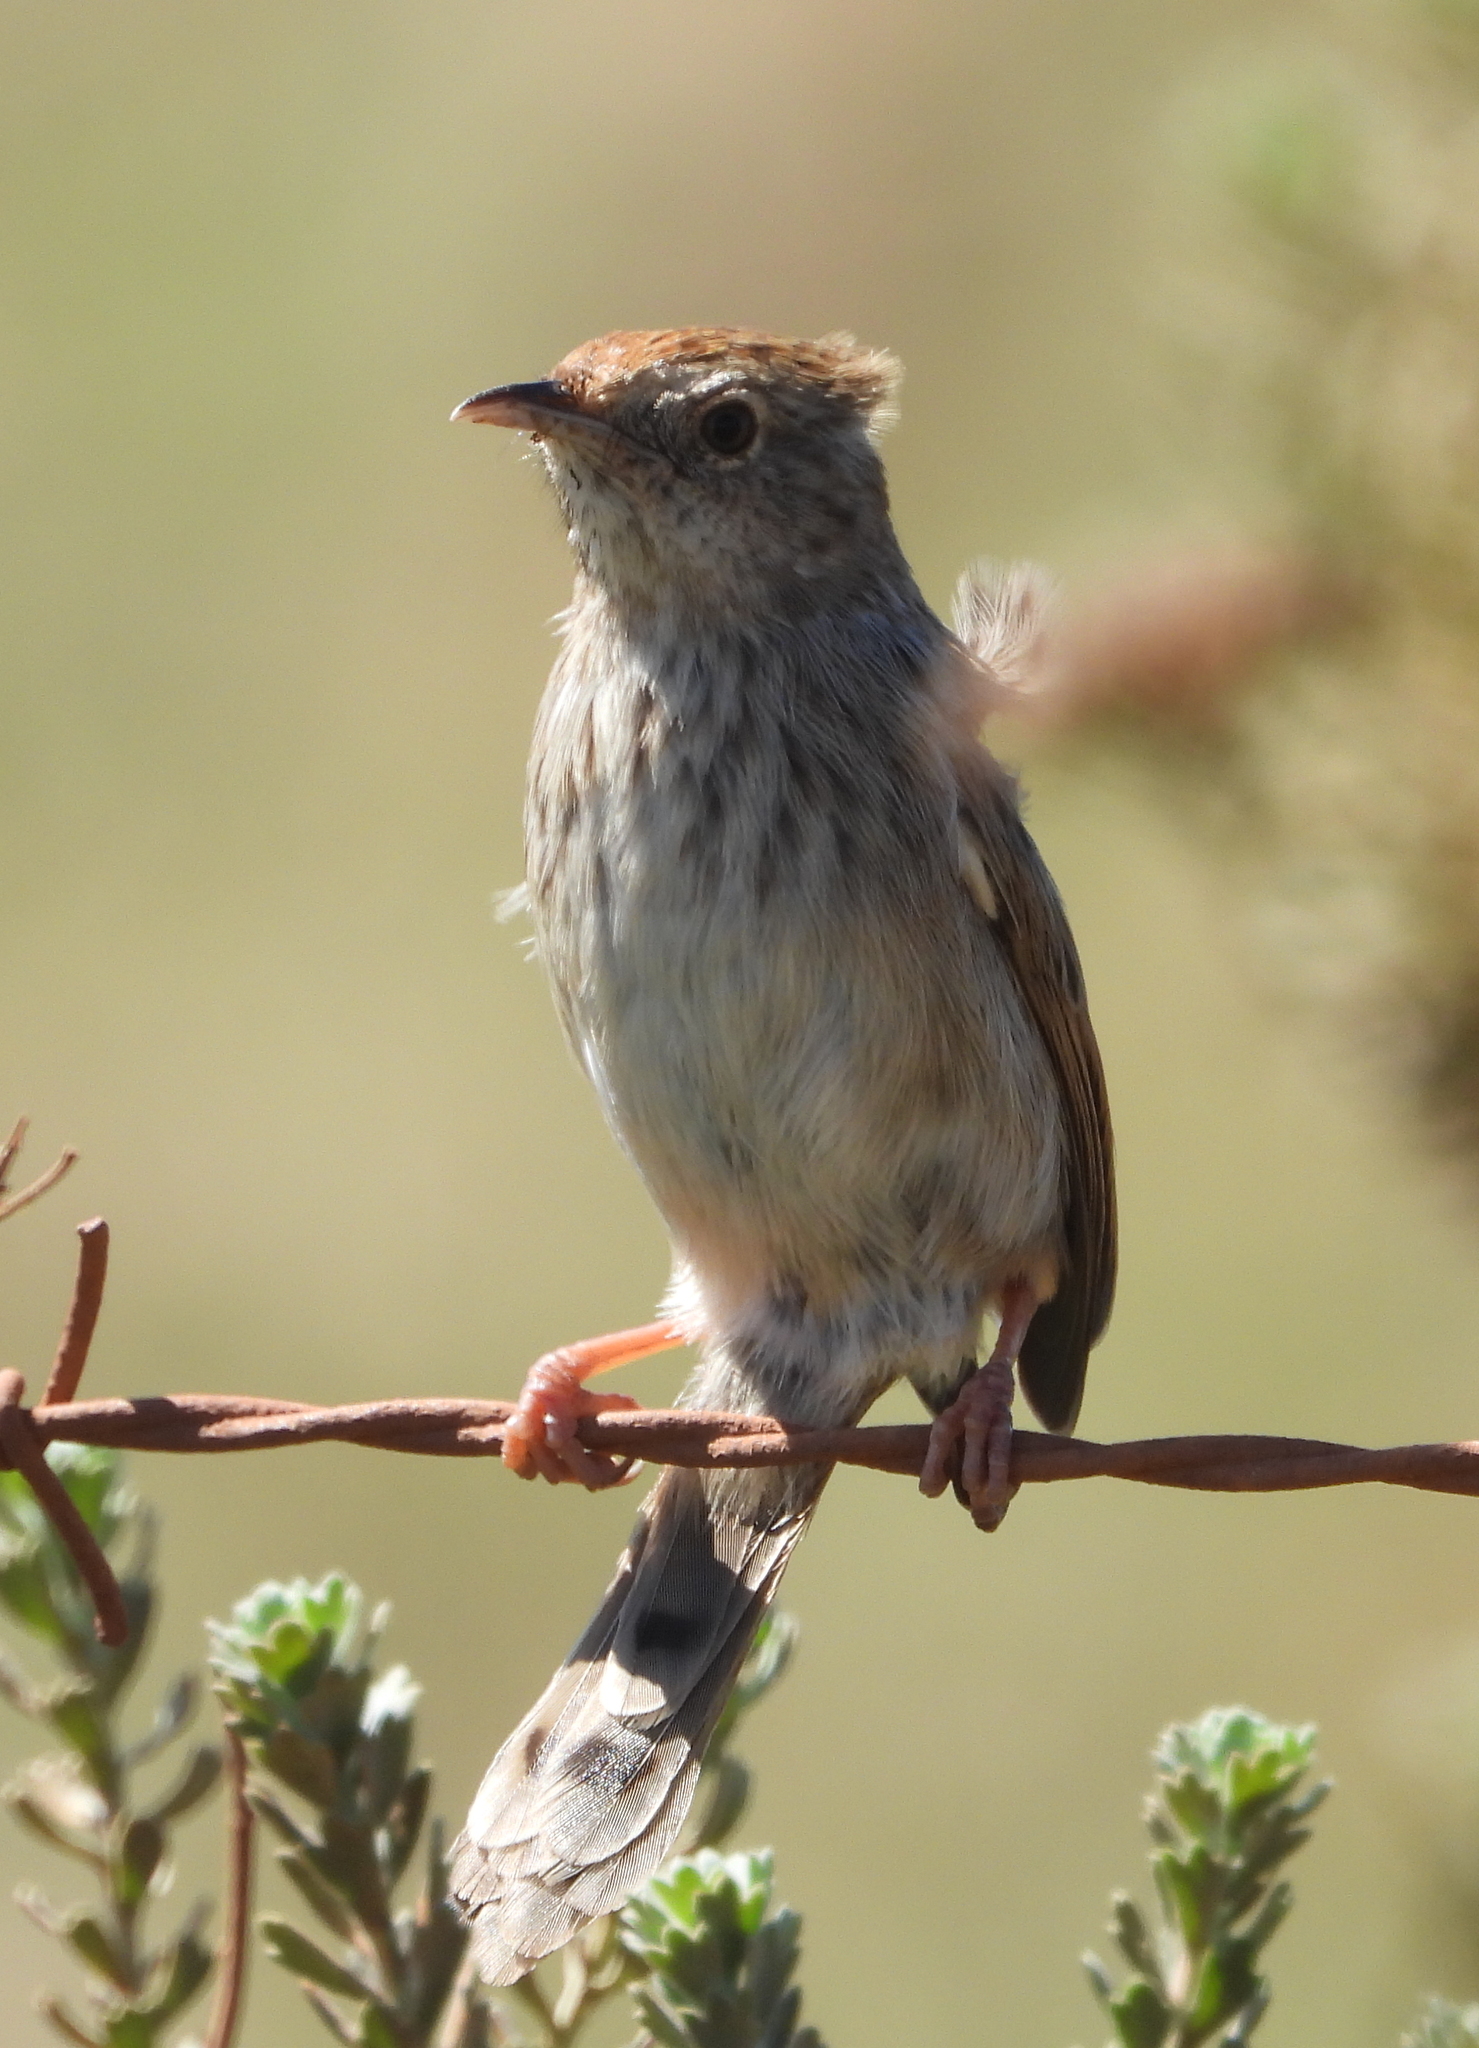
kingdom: Animalia
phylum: Chordata
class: Aves
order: Passeriformes
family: Cisticolidae
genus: Cisticola
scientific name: Cisticola subruficapilla
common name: Grey-backed cisticola
